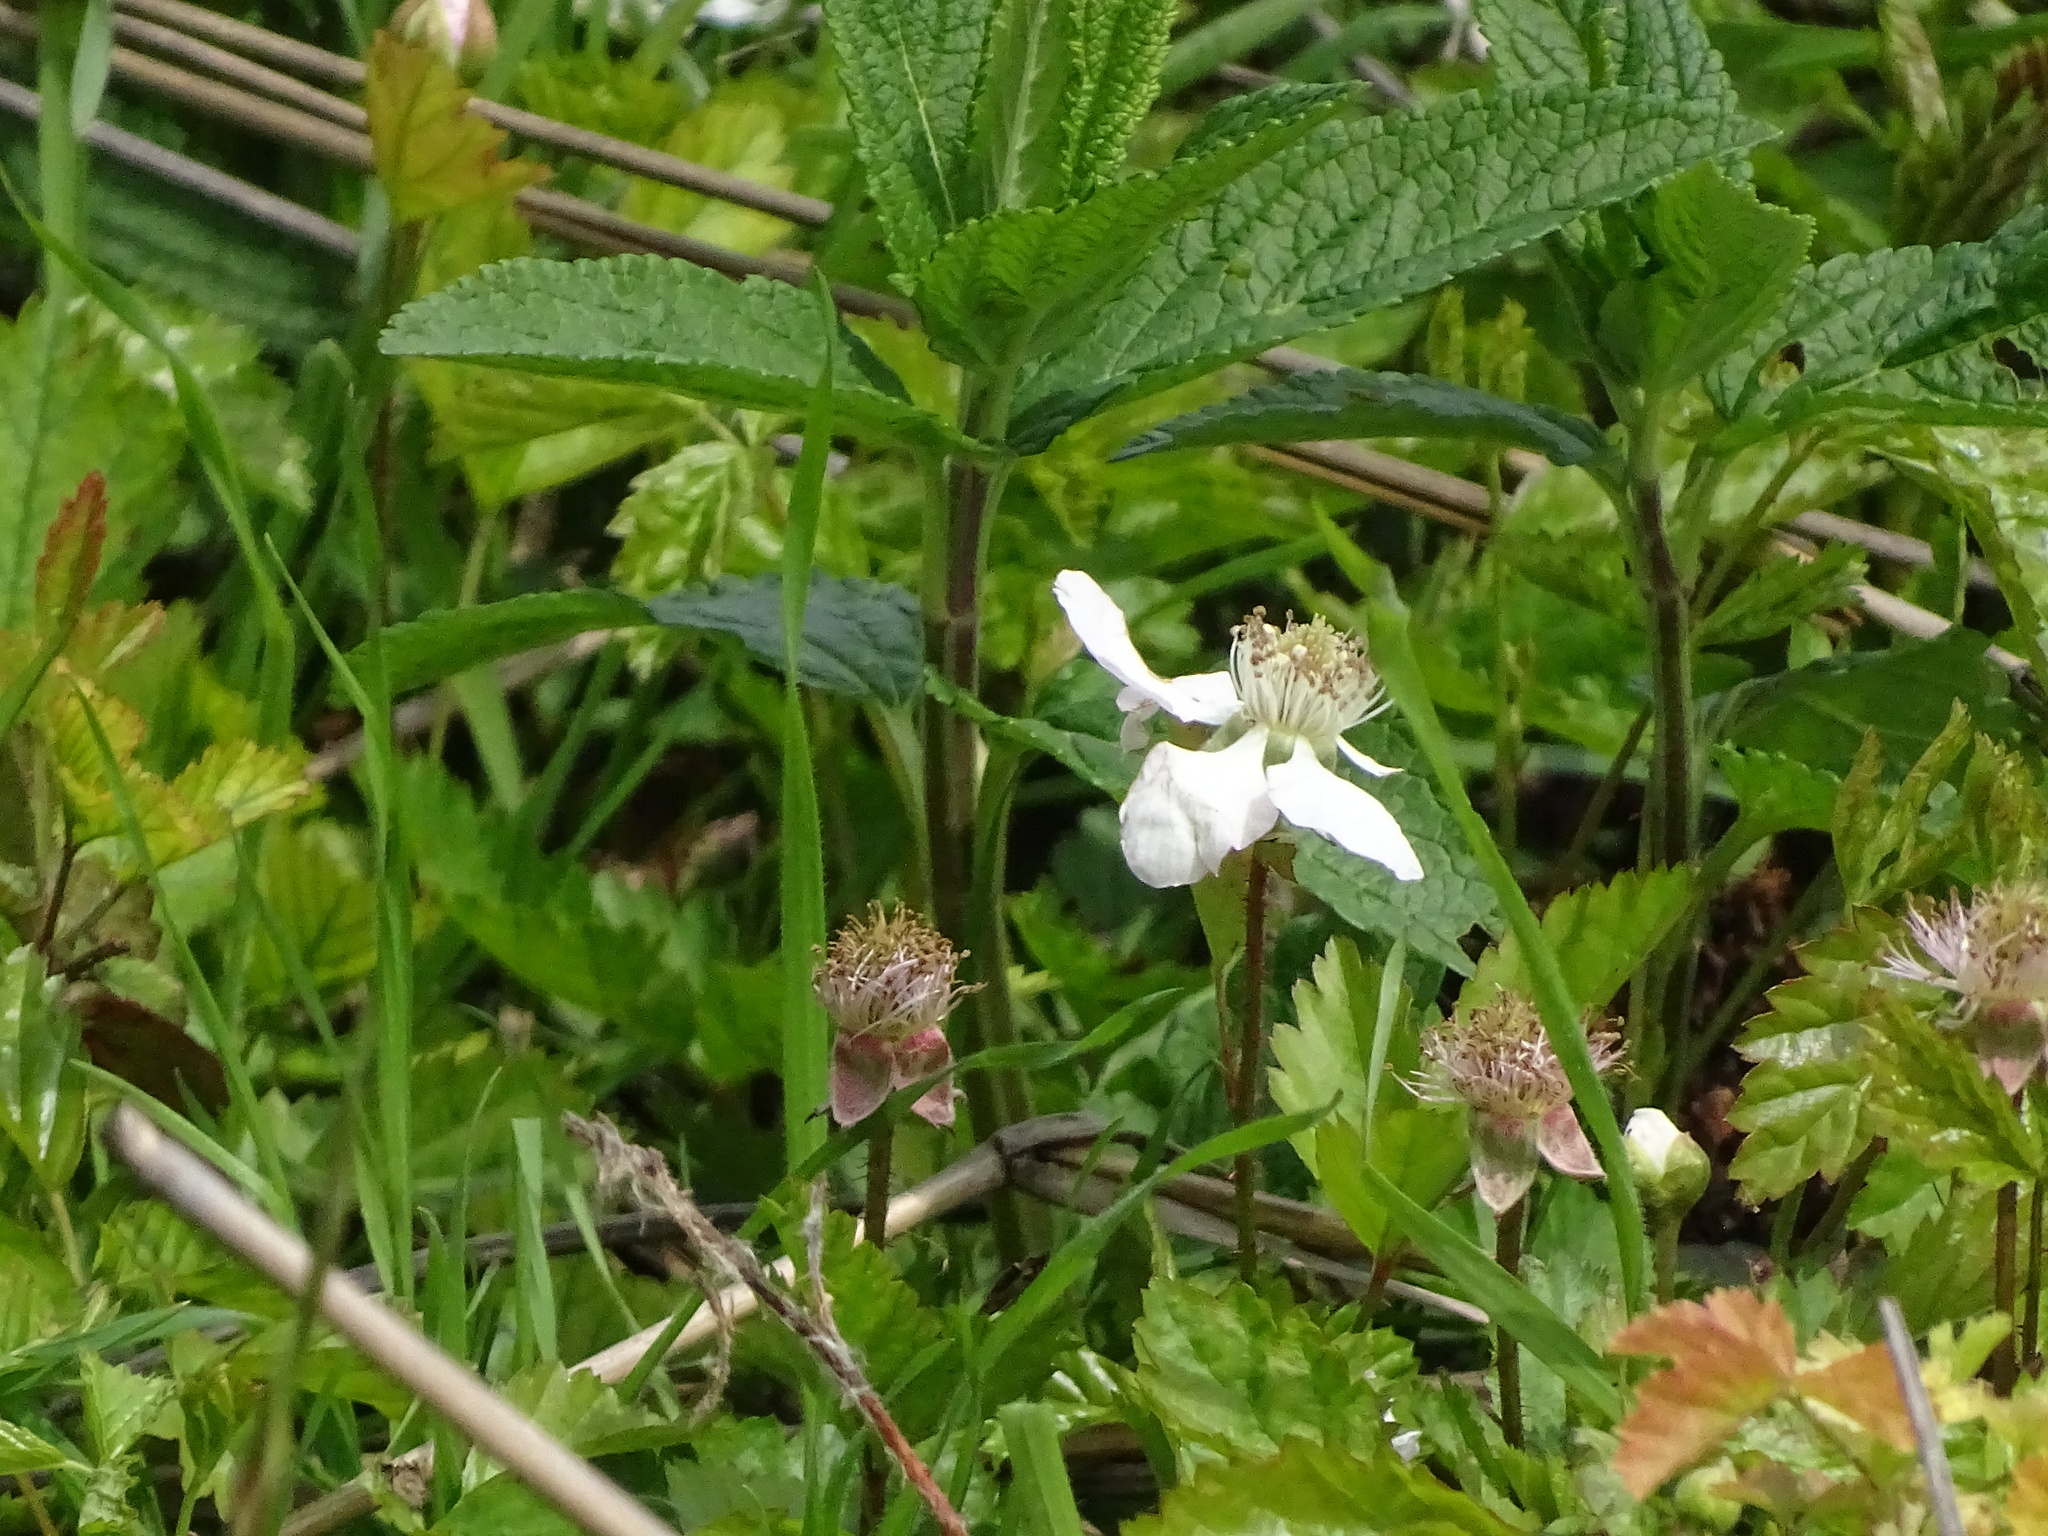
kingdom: Plantae
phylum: Tracheophyta
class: Magnoliopsida
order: Rosales
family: Rosaceae
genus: Rubus
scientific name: Rubus trivialis
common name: Southern dewberry
